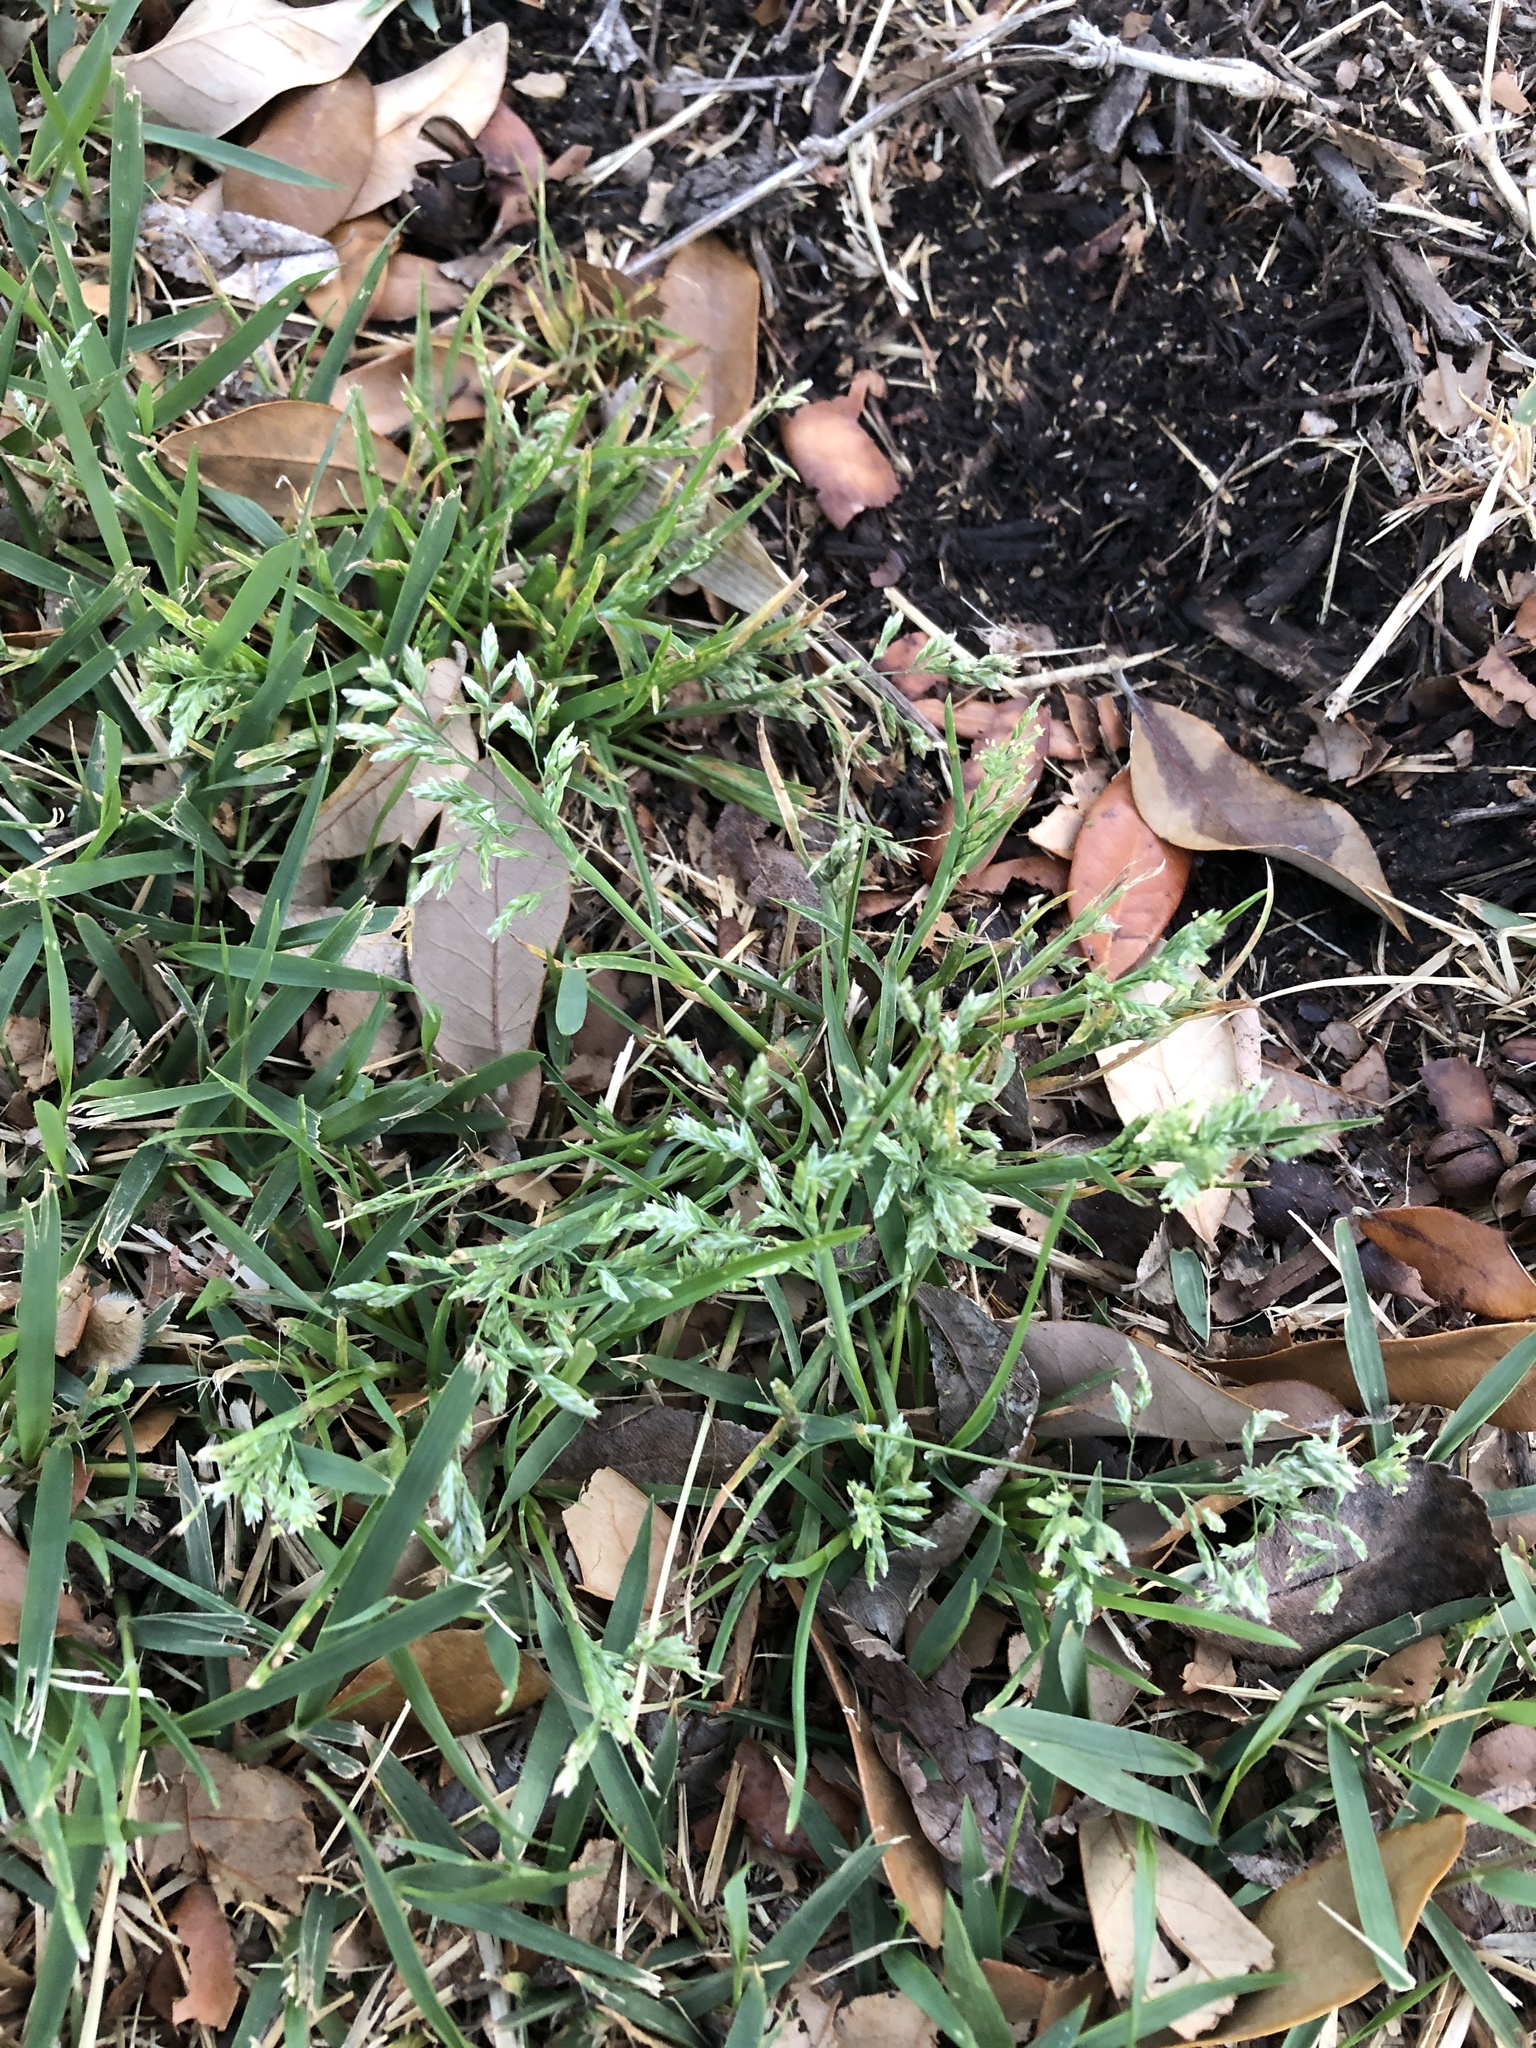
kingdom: Plantae
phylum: Tracheophyta
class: Liliopsida
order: Poales
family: Poaceae
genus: Poa
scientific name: Poa annua
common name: Annual bluegrass
